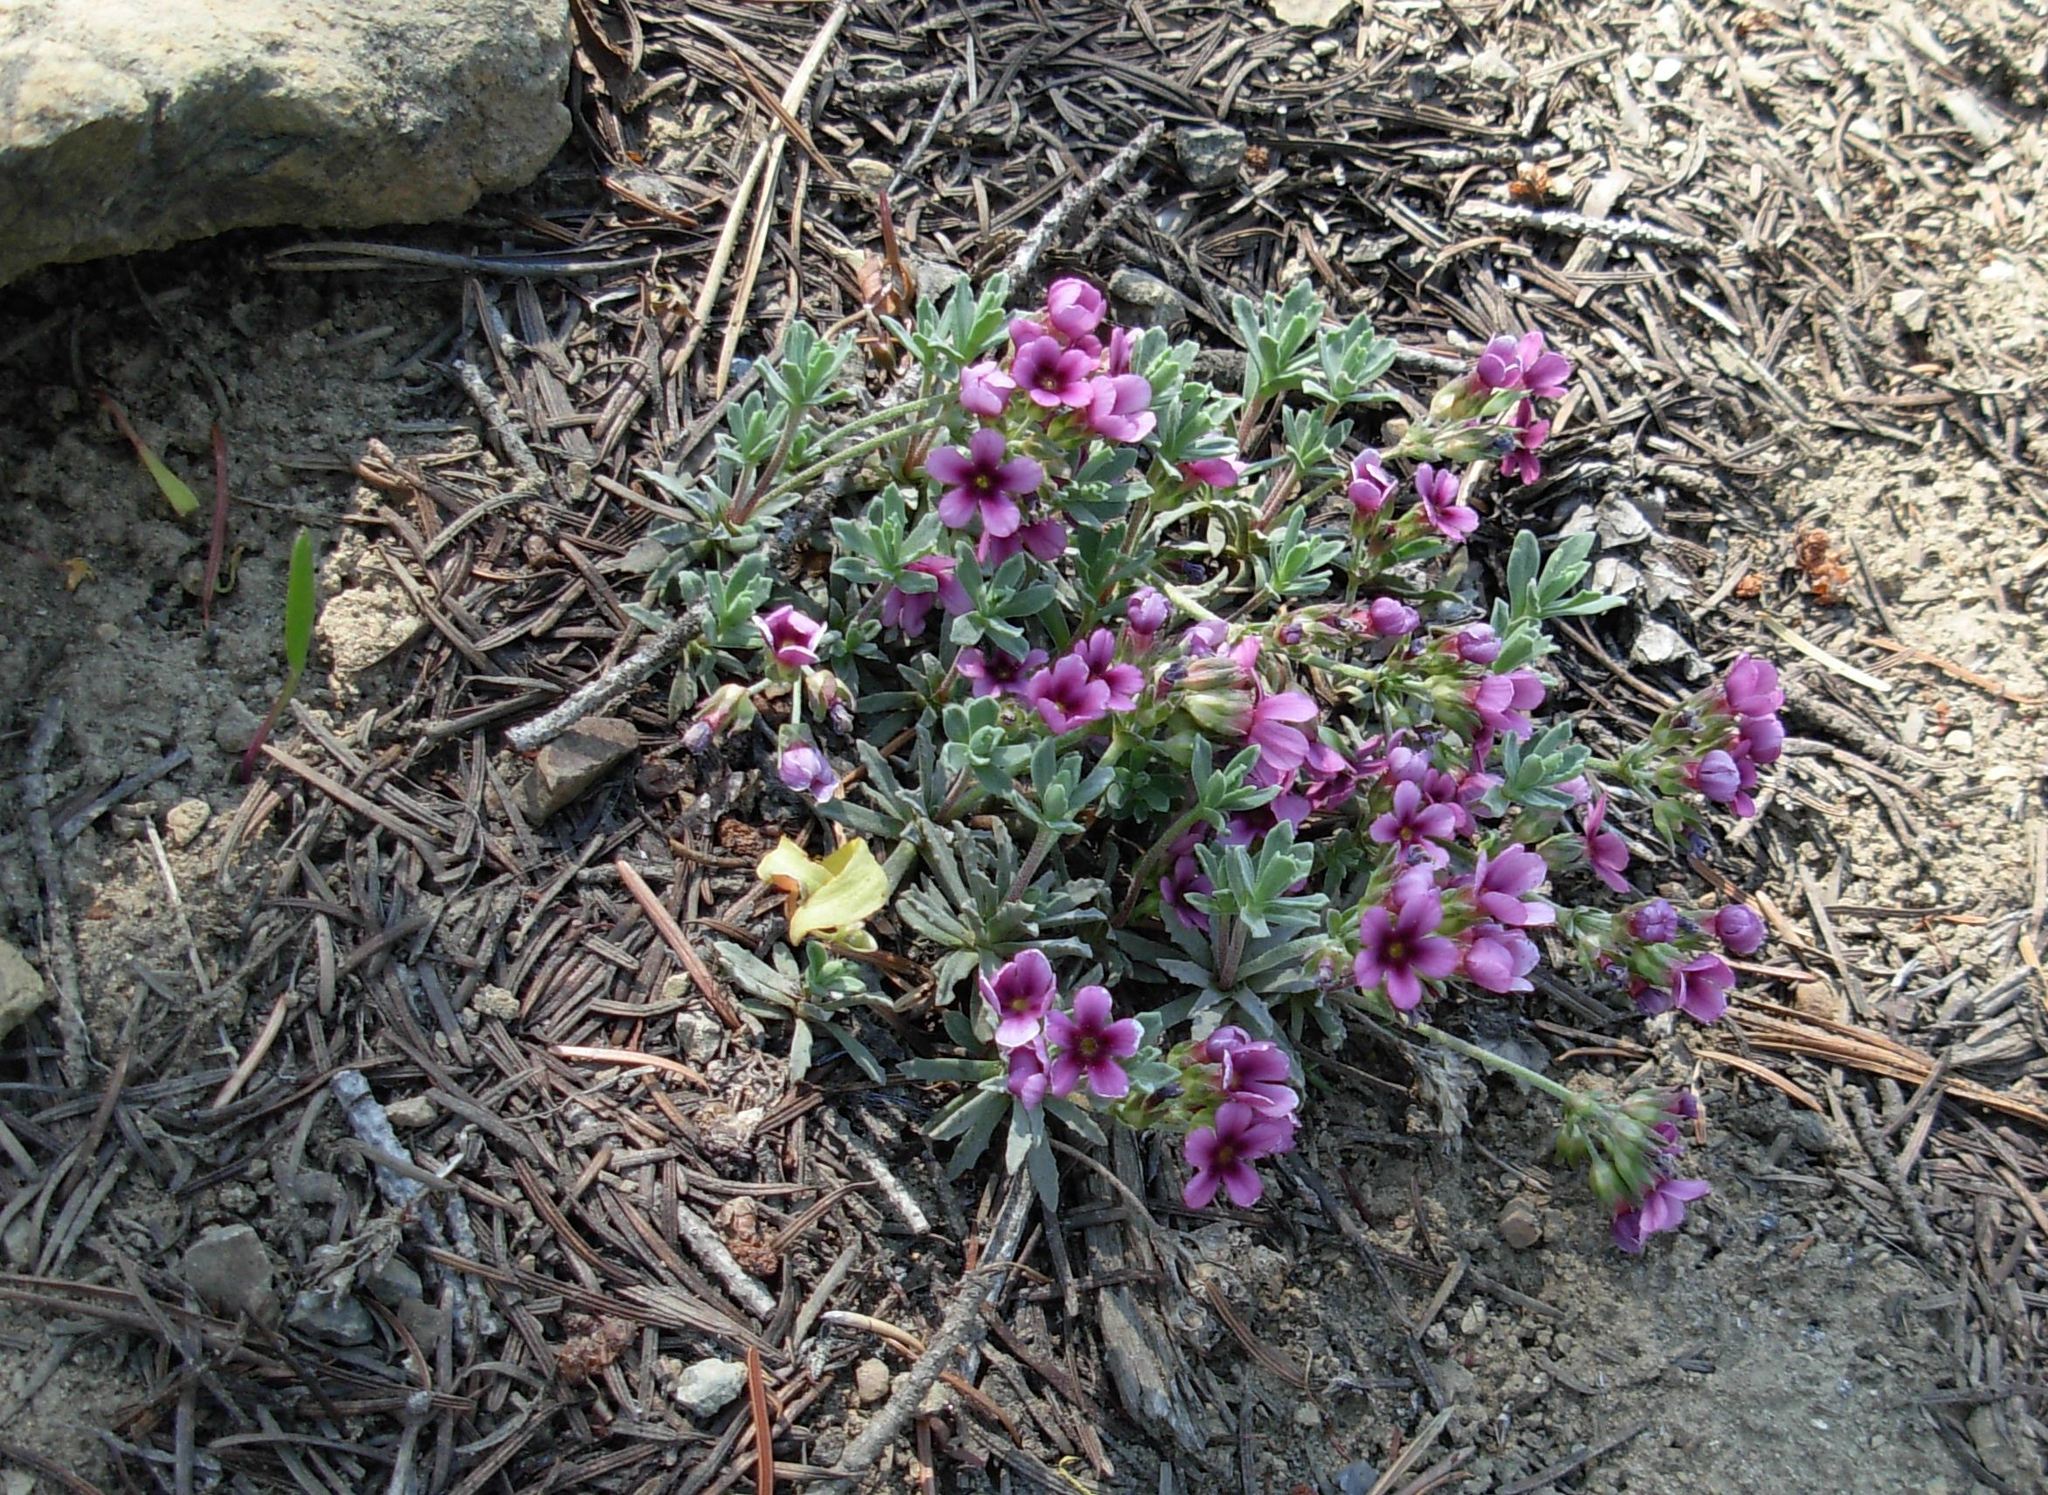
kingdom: Plantae
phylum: Tracheophyta
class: Magnoliopsida
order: Ericales
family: Primulaceae
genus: Androsace
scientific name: Androsace nivalis
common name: Snow dwarf-primrose
